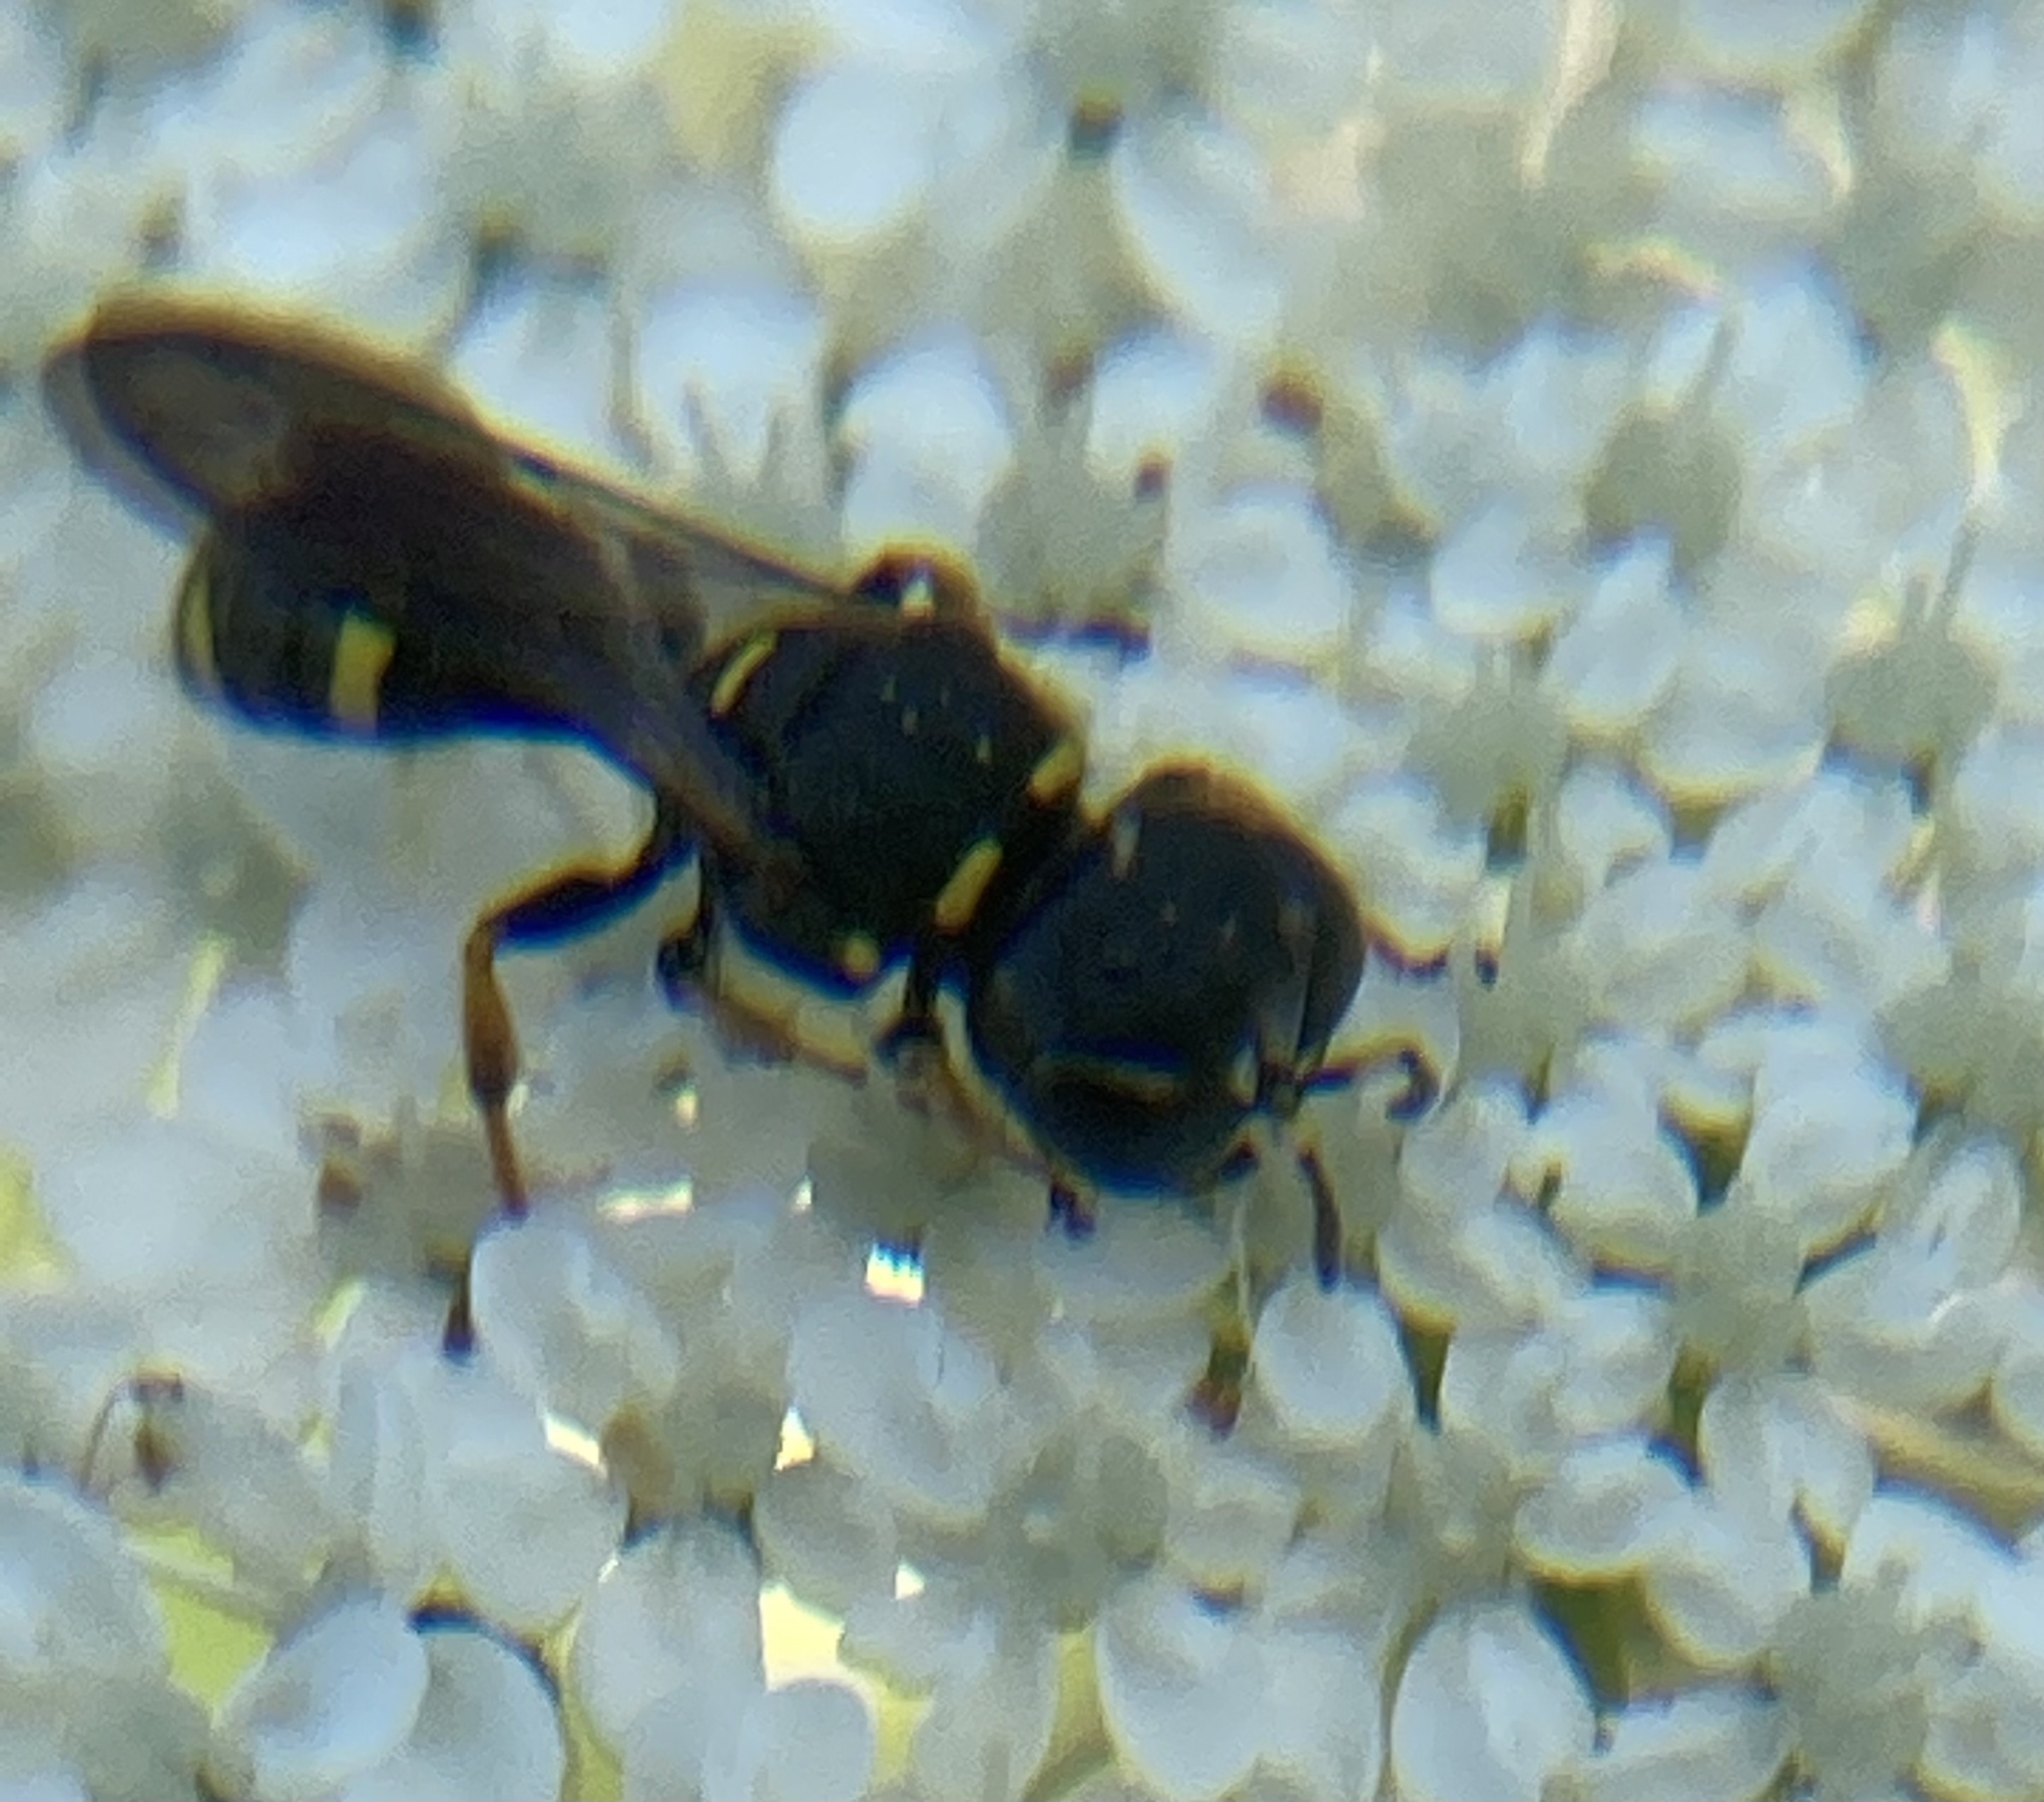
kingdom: Animalia
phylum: Arthropoda
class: Insecta
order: Hymenoptera
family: Crabronidae
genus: Ectemnius
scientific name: Ectemnius continuus
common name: Common ectemnius
